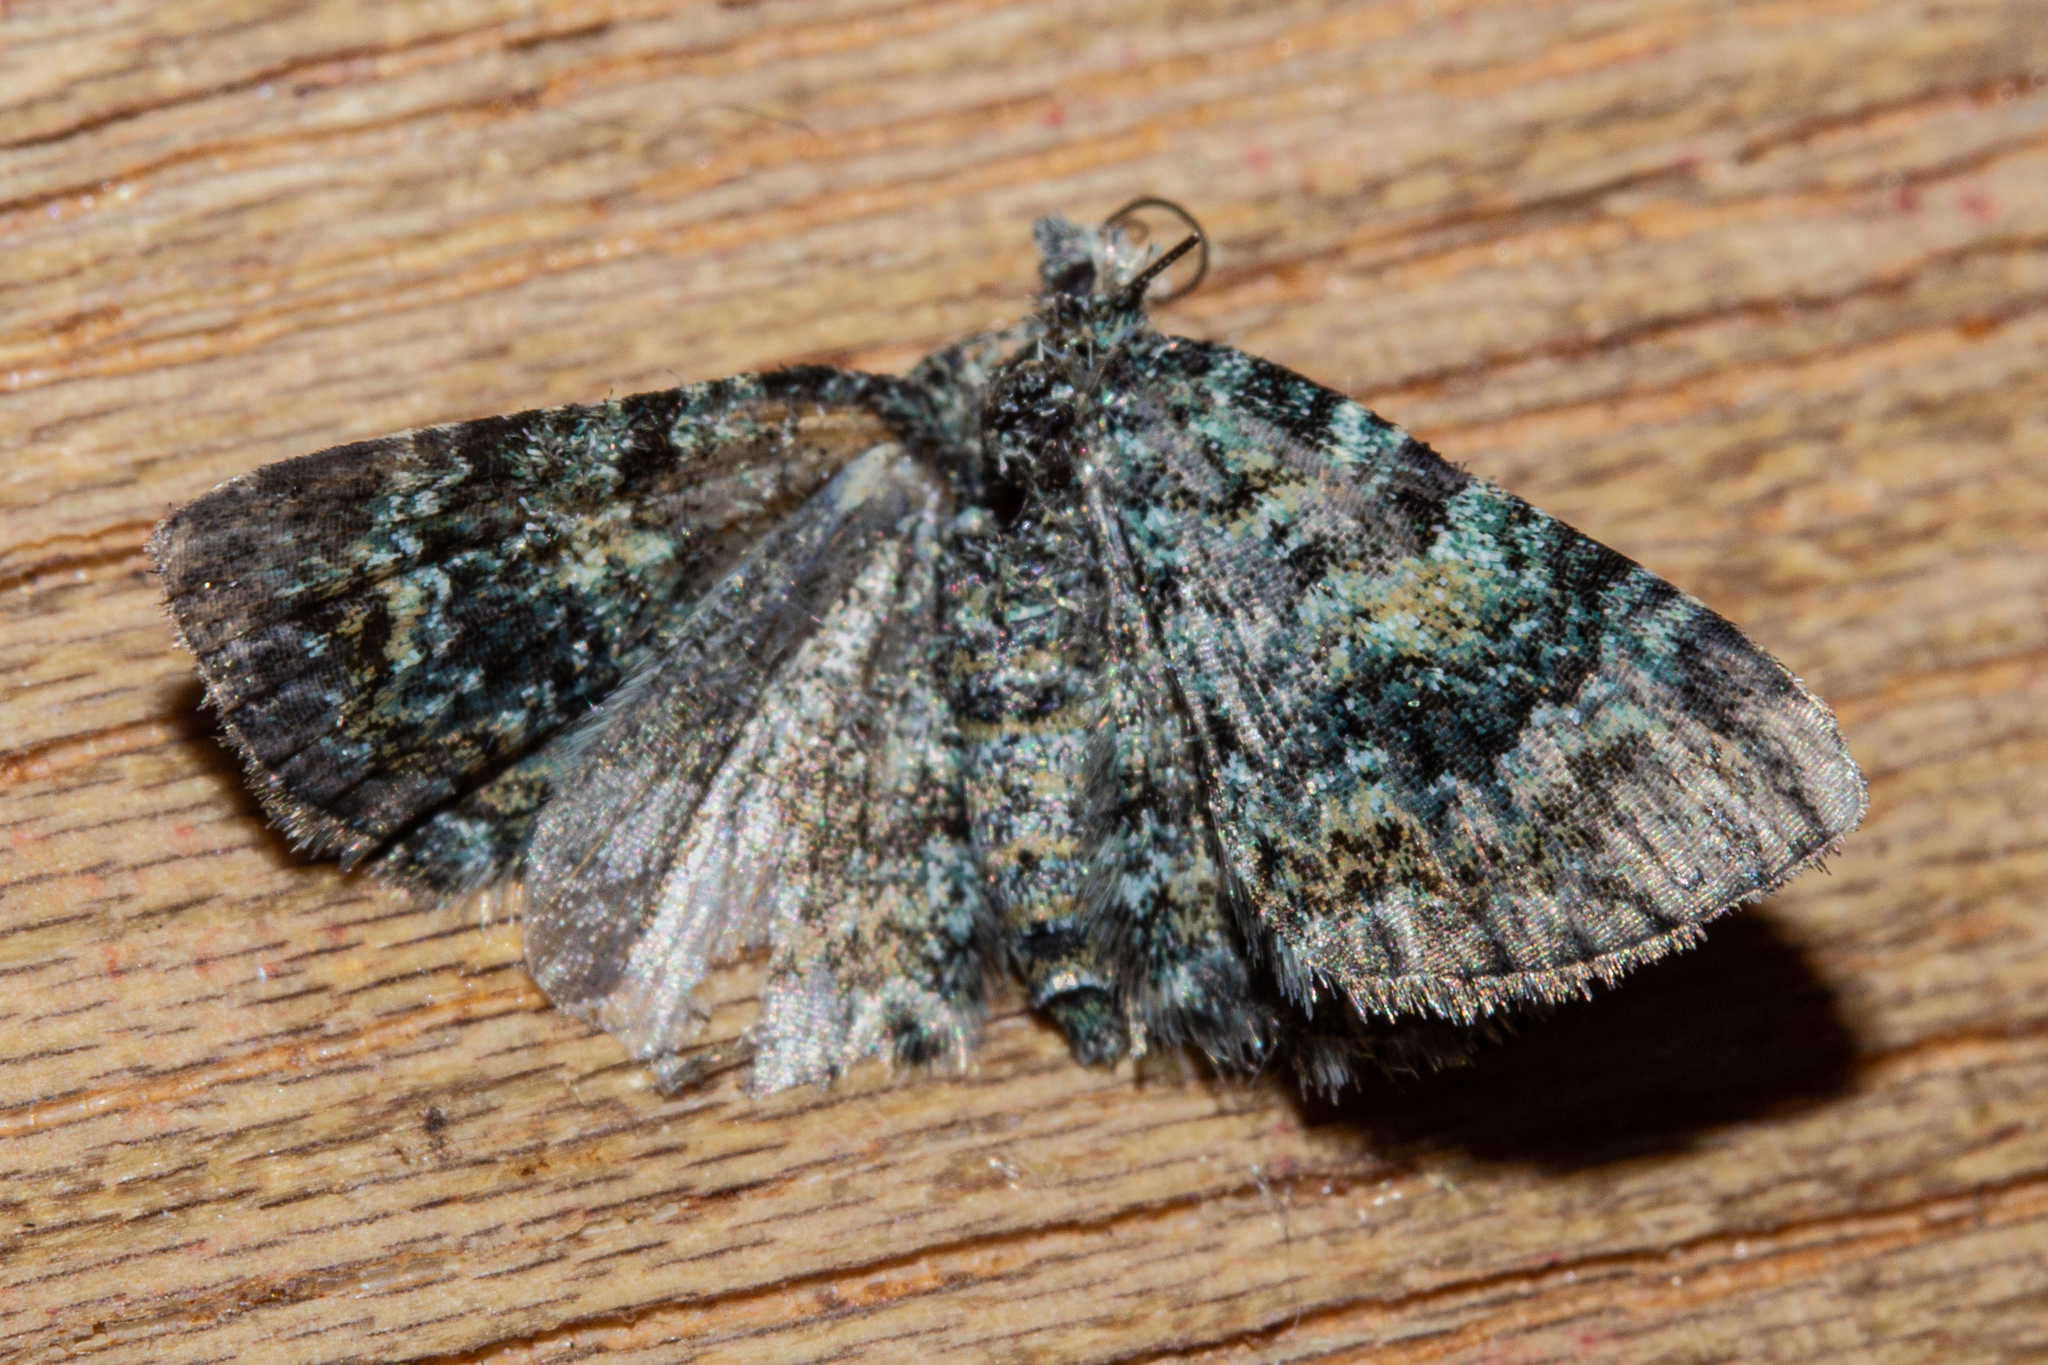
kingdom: Animalia
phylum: Arthropoda
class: Insecta
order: Lepidoptera
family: Geometridae
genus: Chloroclystis
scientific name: Chloroclystis nereis
